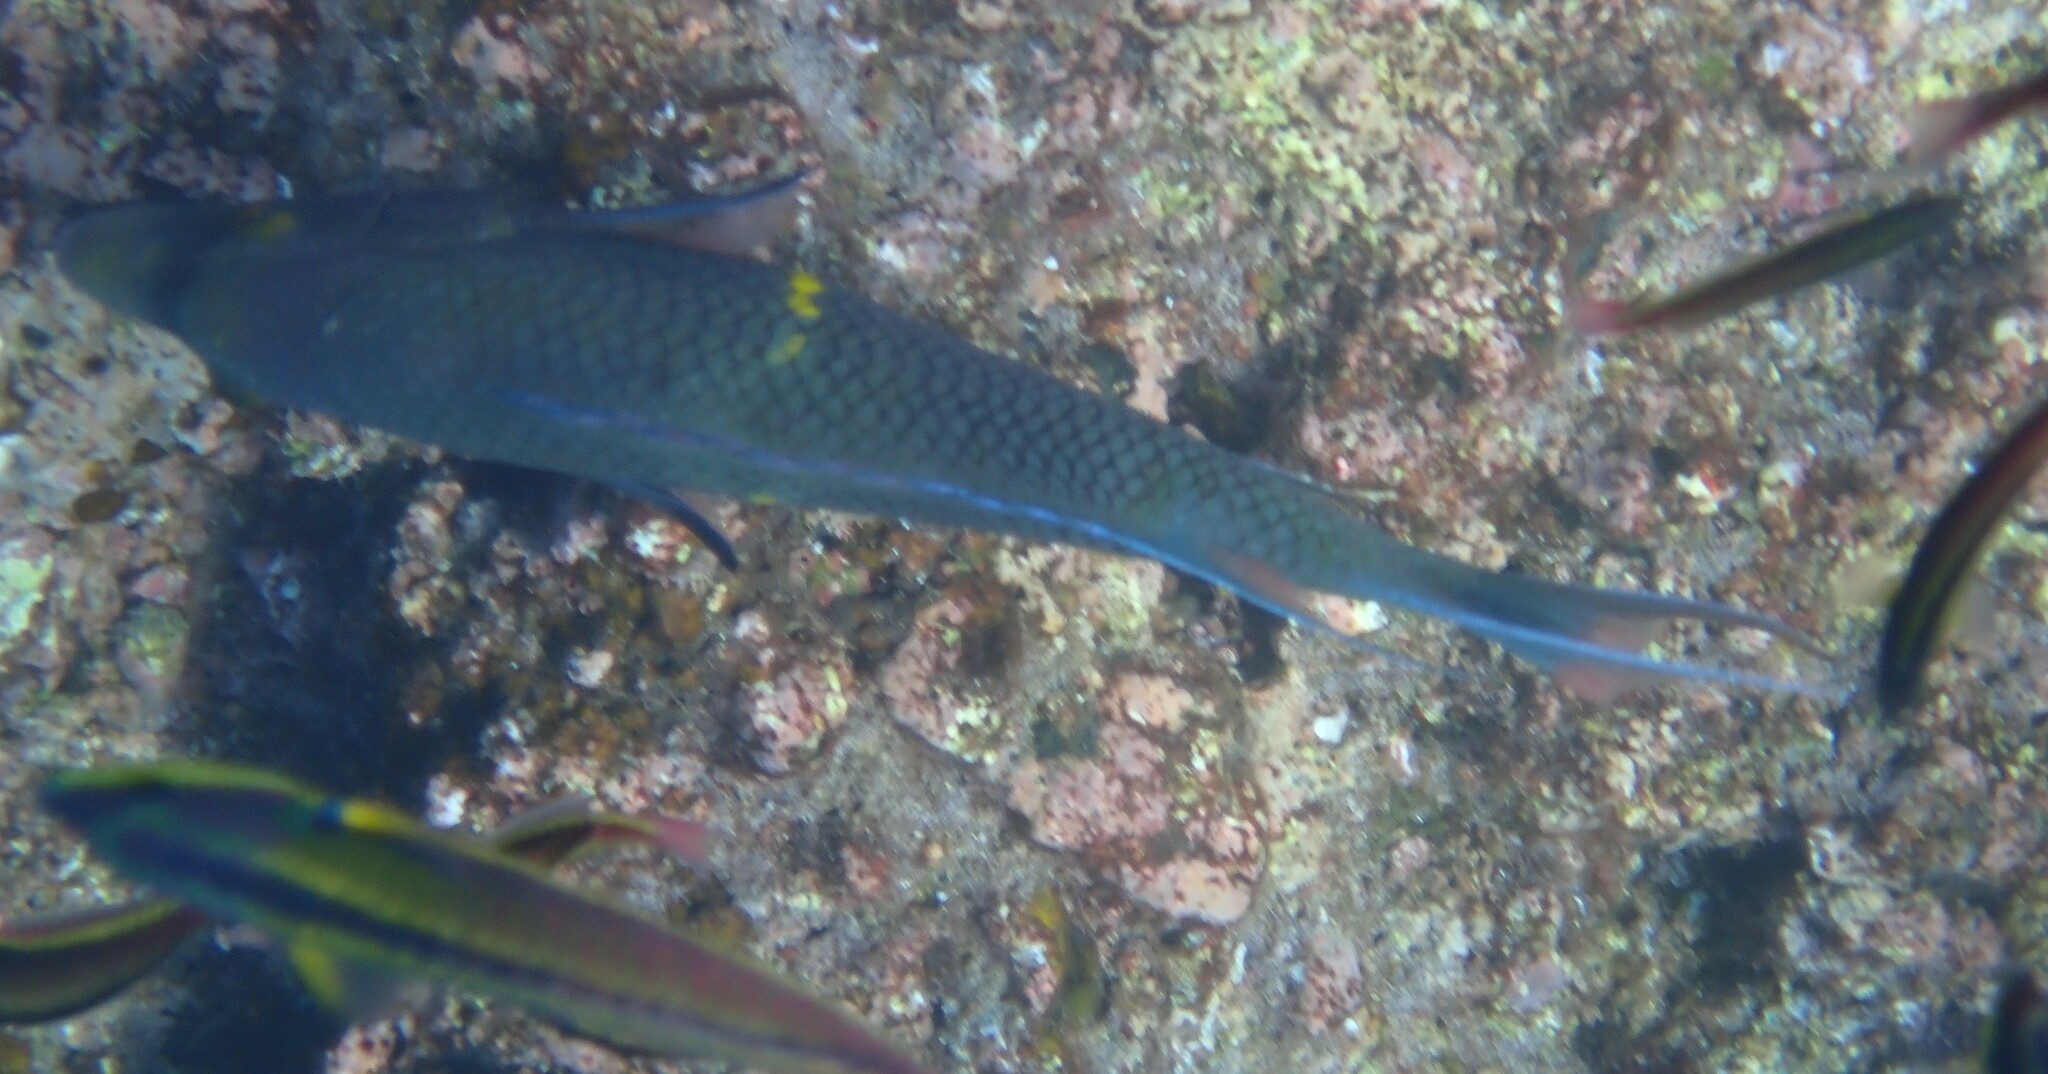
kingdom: Animalia
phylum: Chordata
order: Perciformes
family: Labridae
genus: Bodianus
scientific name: Bodianus diplotaenia
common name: Mexican hogfish
